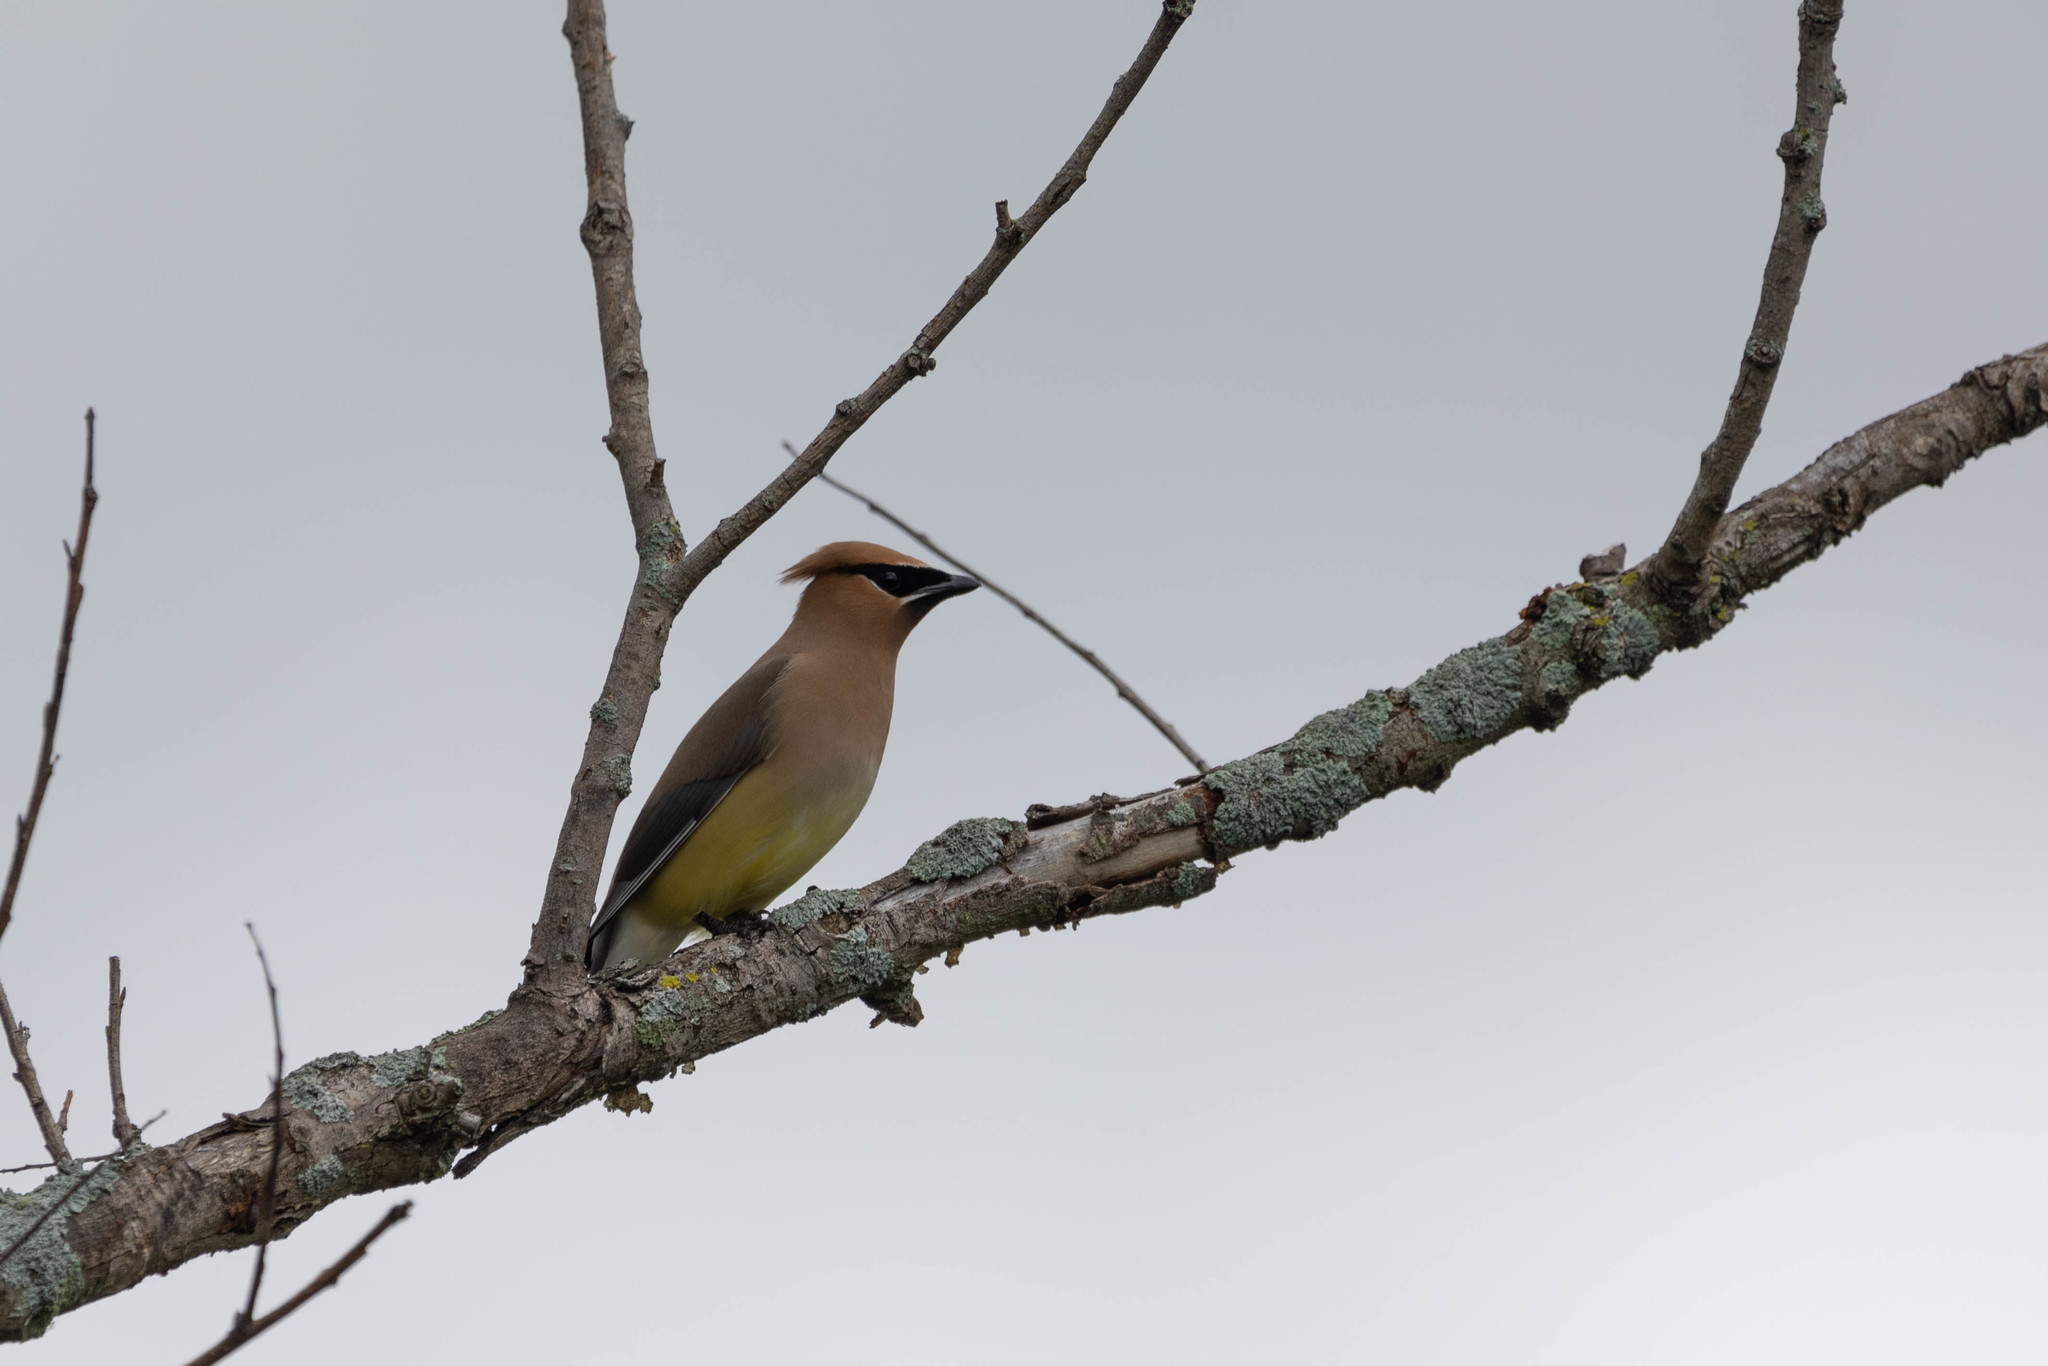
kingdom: Animalia
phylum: Chordata
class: Aves
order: Passeriformes
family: Bombycillidae
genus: Bombycilla
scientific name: Bombycilla cedrorum
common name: Cedar waxwing
